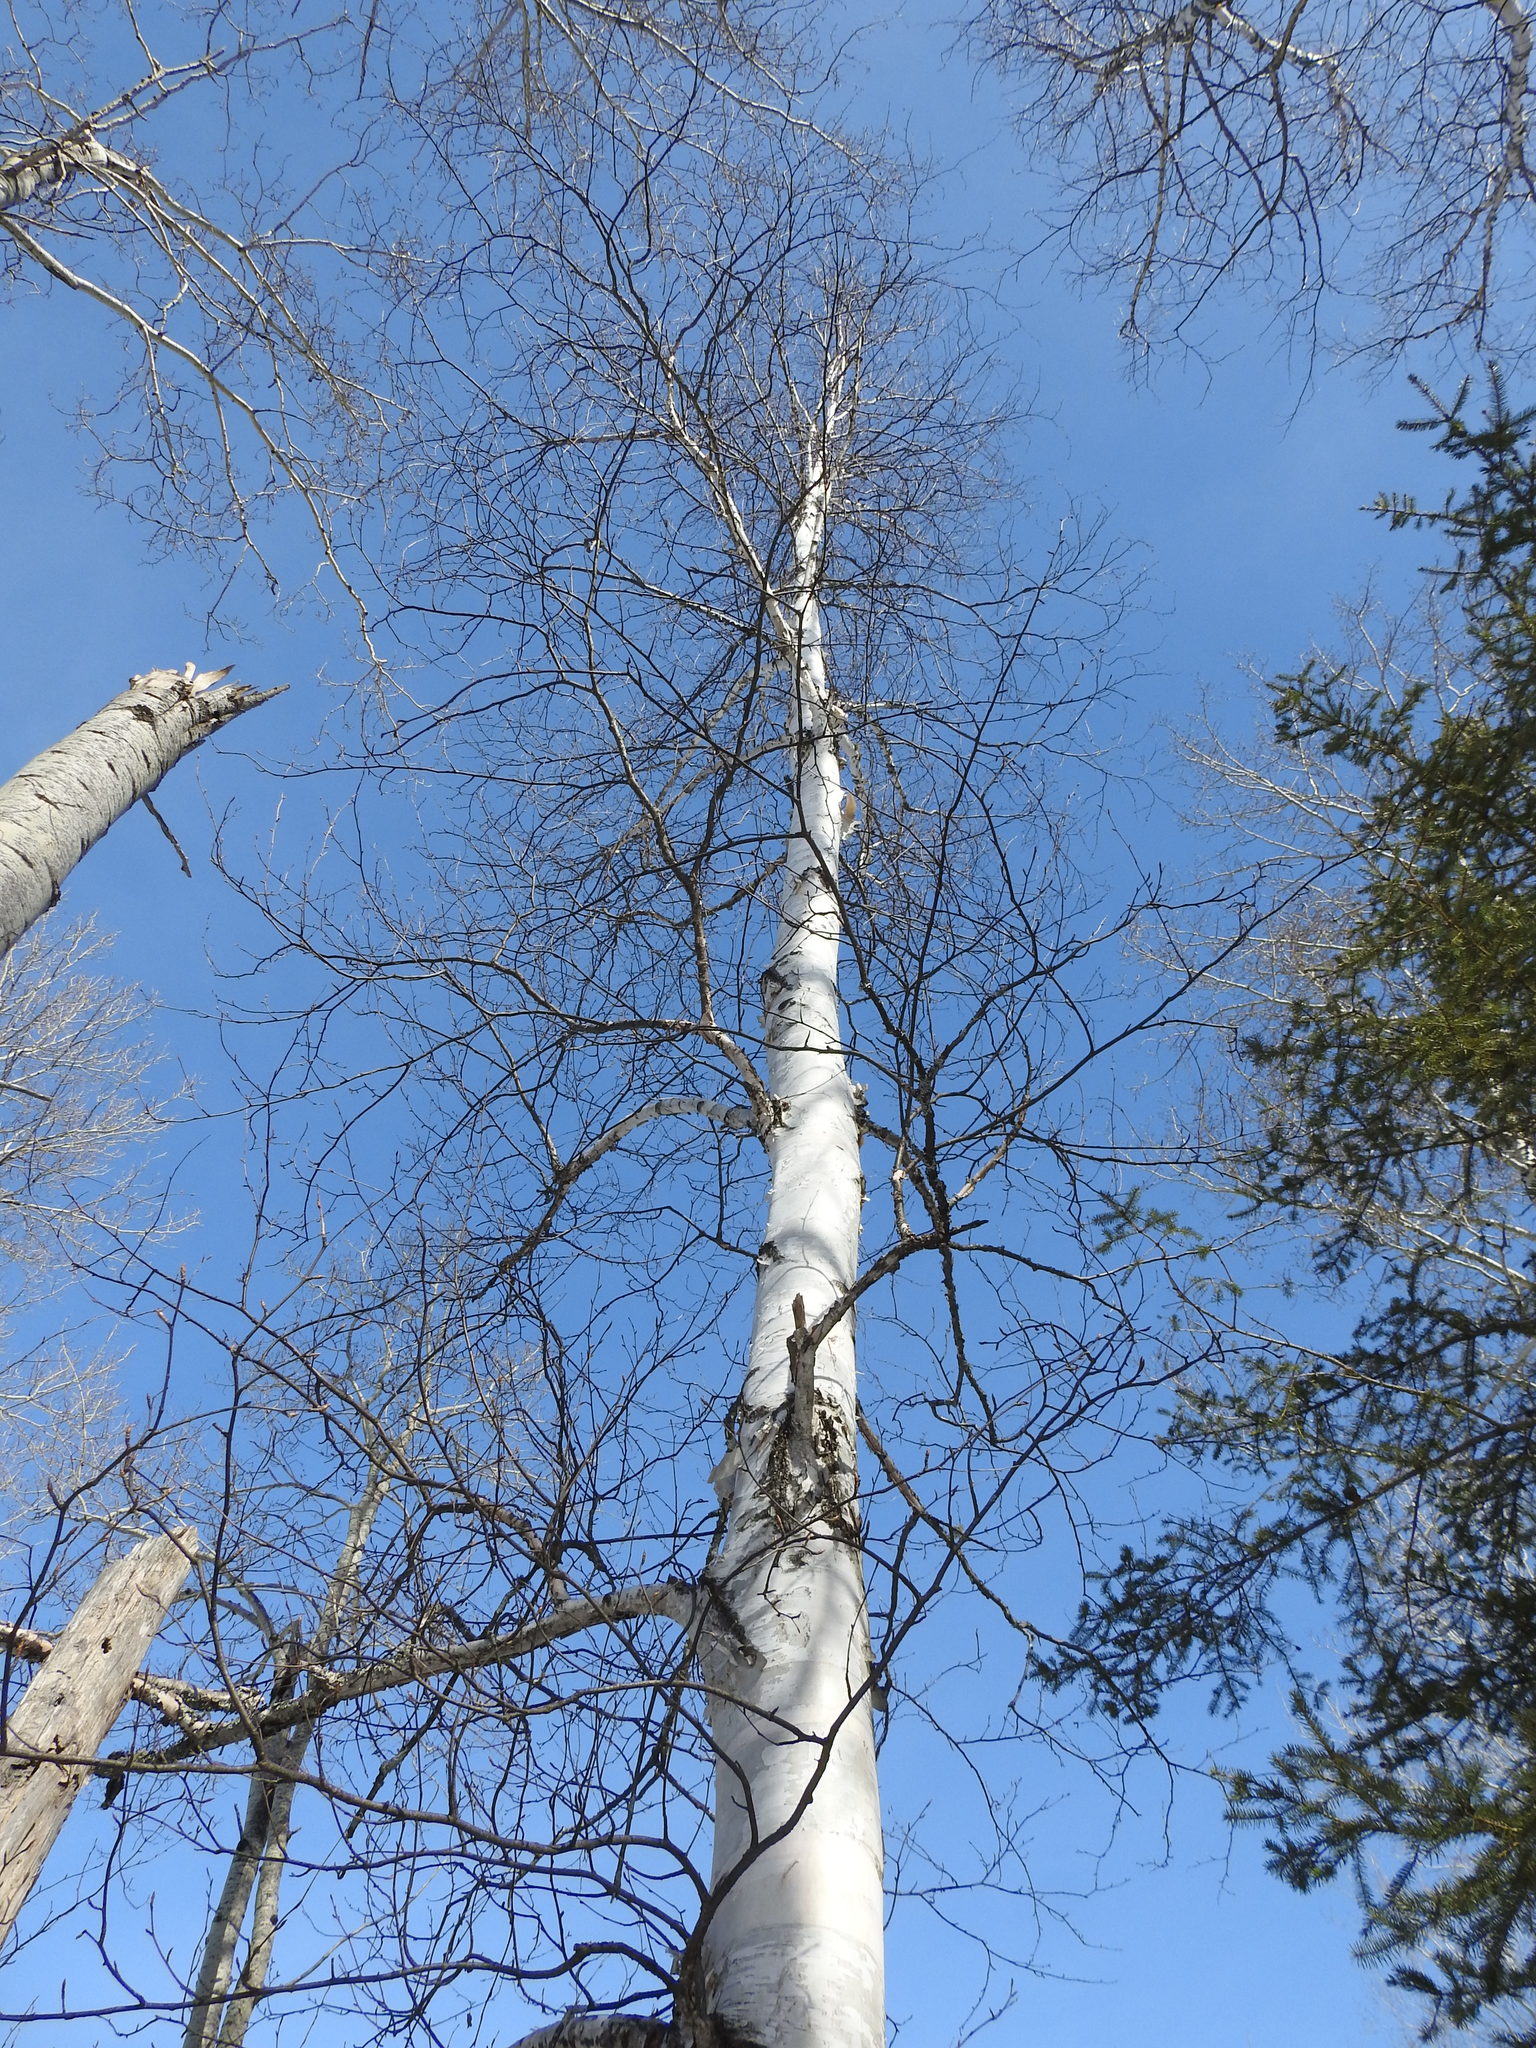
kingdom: Plantae
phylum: Tracheophyta
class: Magnoliopsida
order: Fagales
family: Betulaceae
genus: Betula
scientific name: Betula papyrifera
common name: Paper birch
